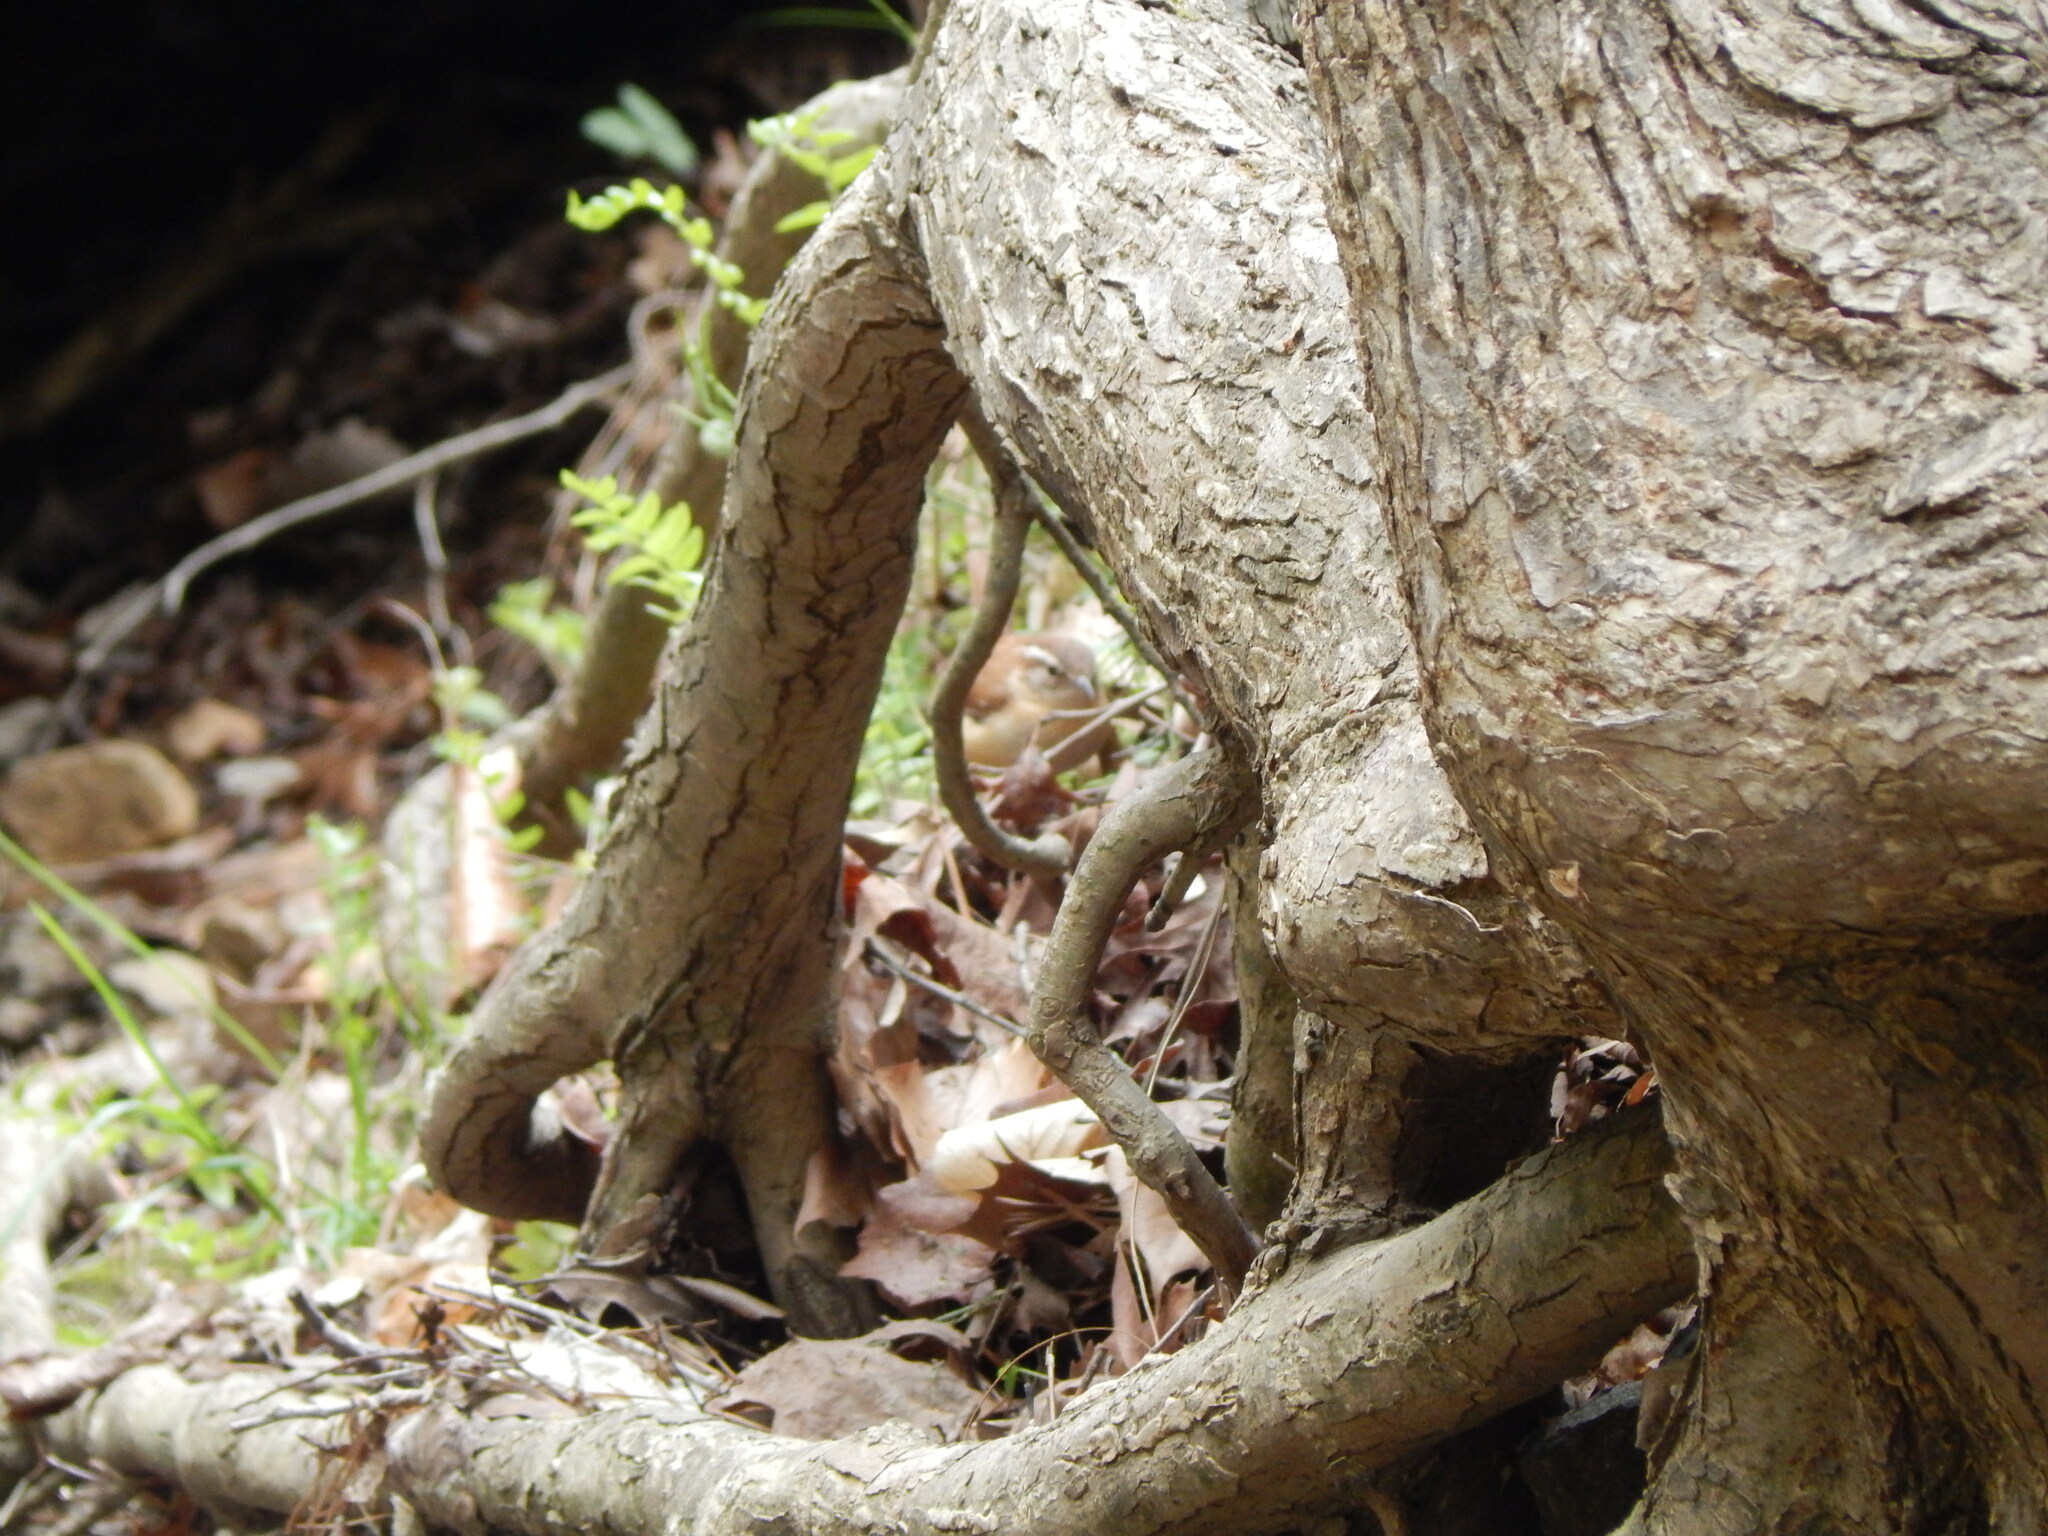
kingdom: Animalia
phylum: Chordata
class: Aves
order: Passeriformes
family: Troglodytidae
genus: Thryothorus
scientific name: Thryothorus ludovicianus
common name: Carolina wren
